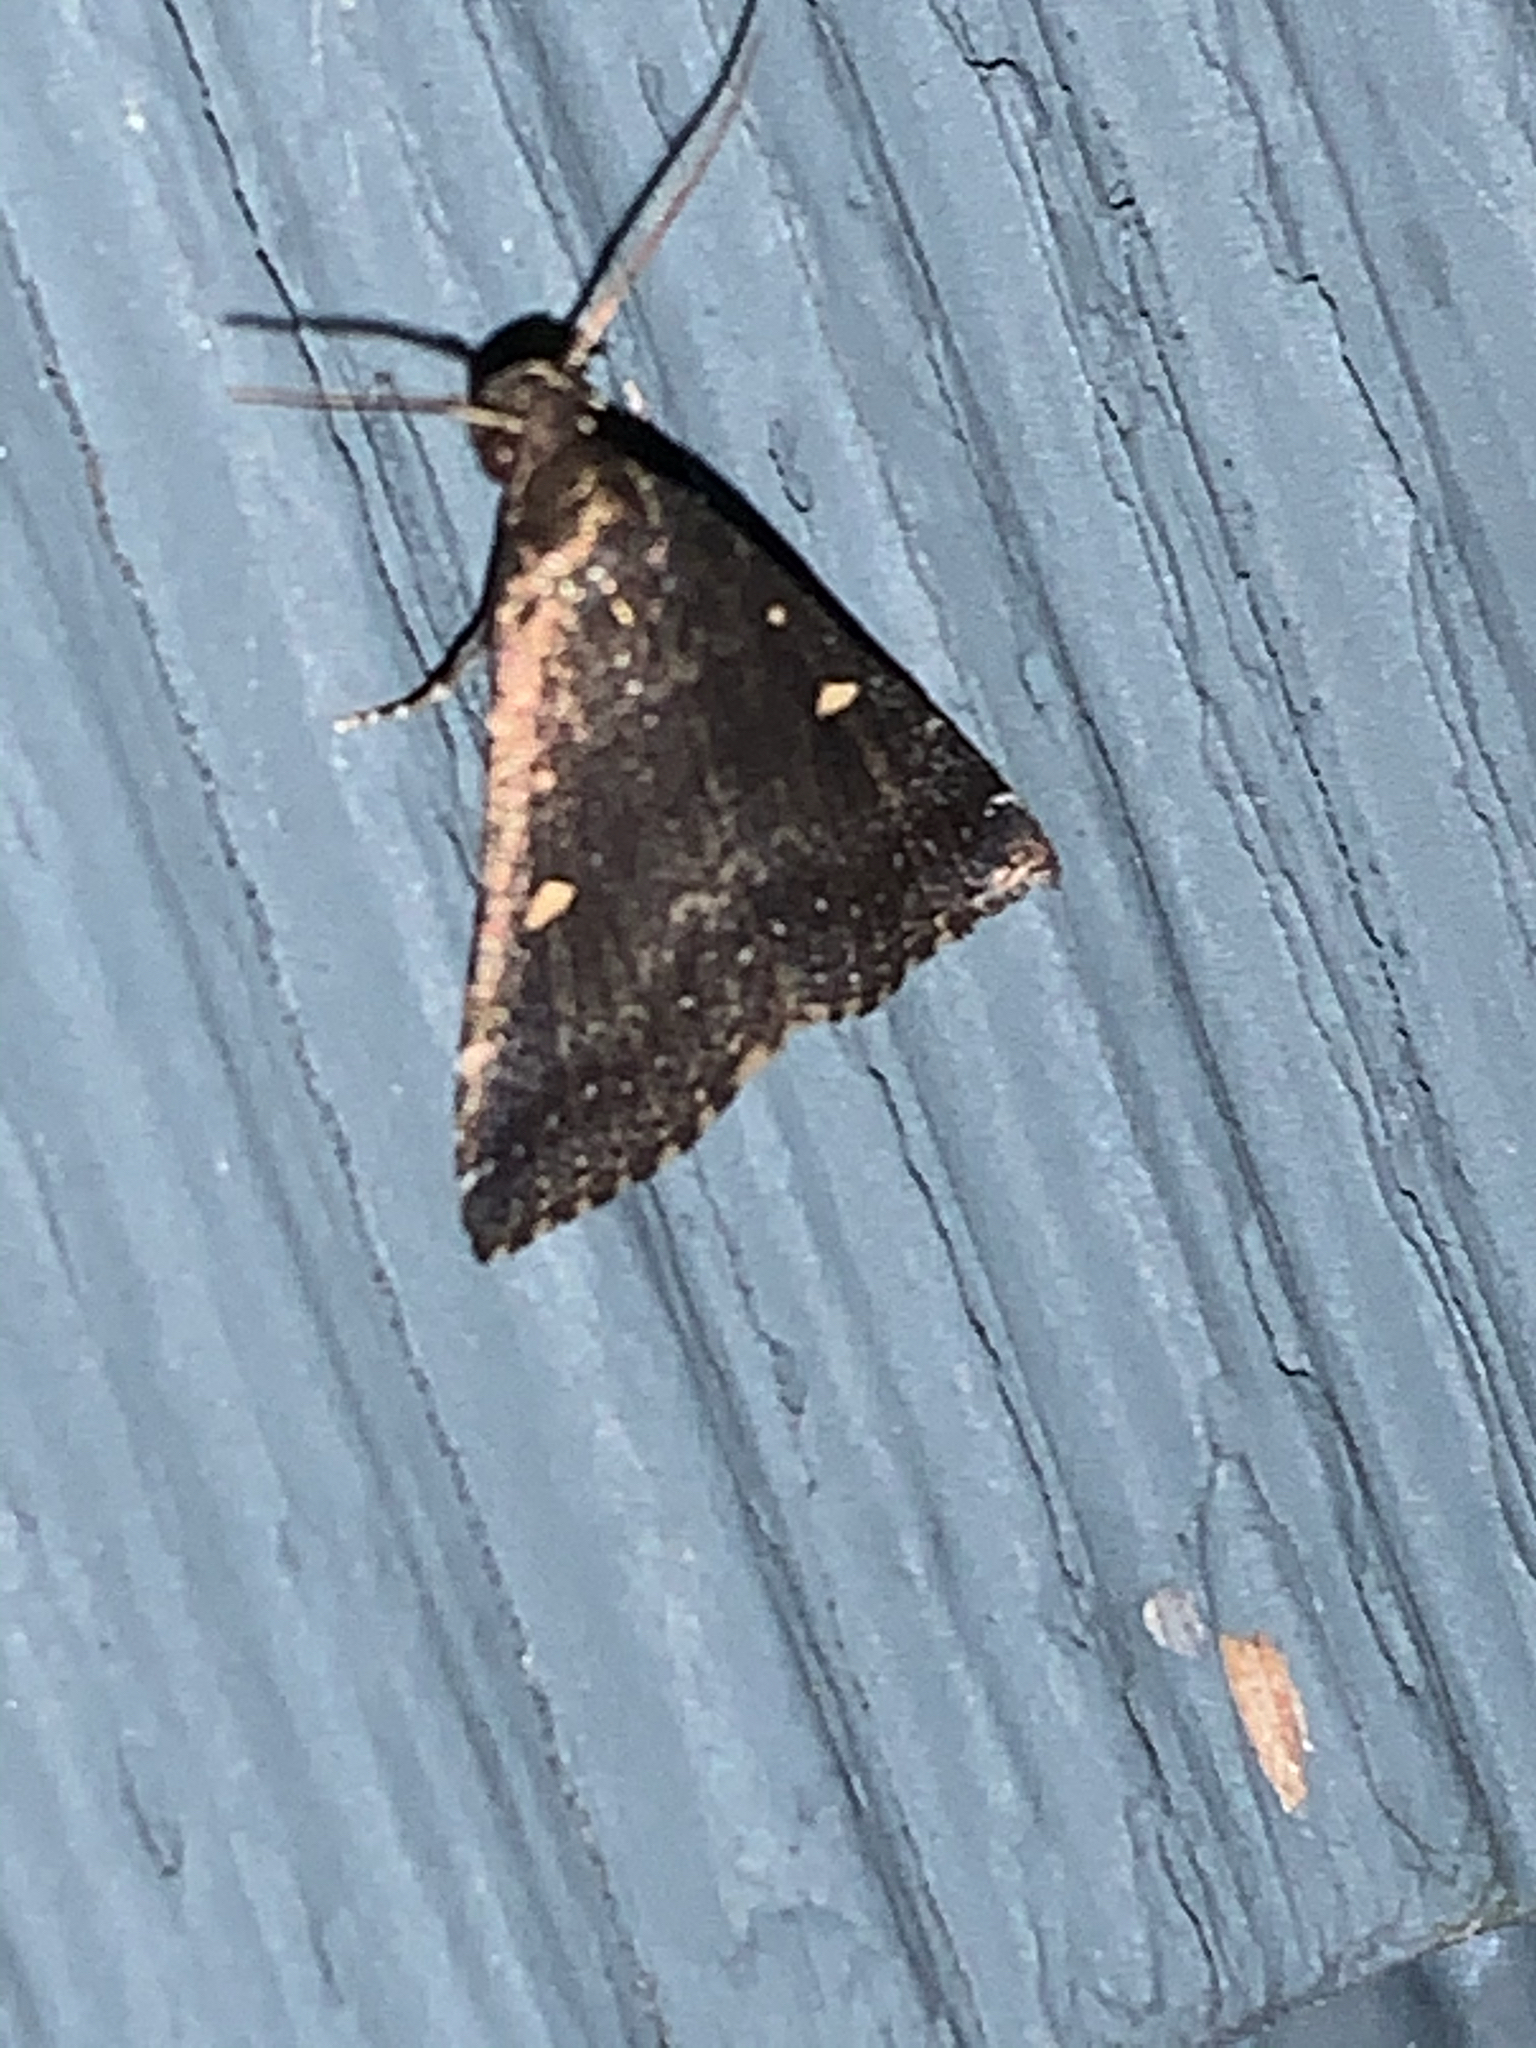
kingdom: Animalia
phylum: Arthropoda
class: Insecta
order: Lepidoptera
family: Erebidae
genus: Tetanolita
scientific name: Tetanolita mynesalis
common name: Smoky tetanolita moth
